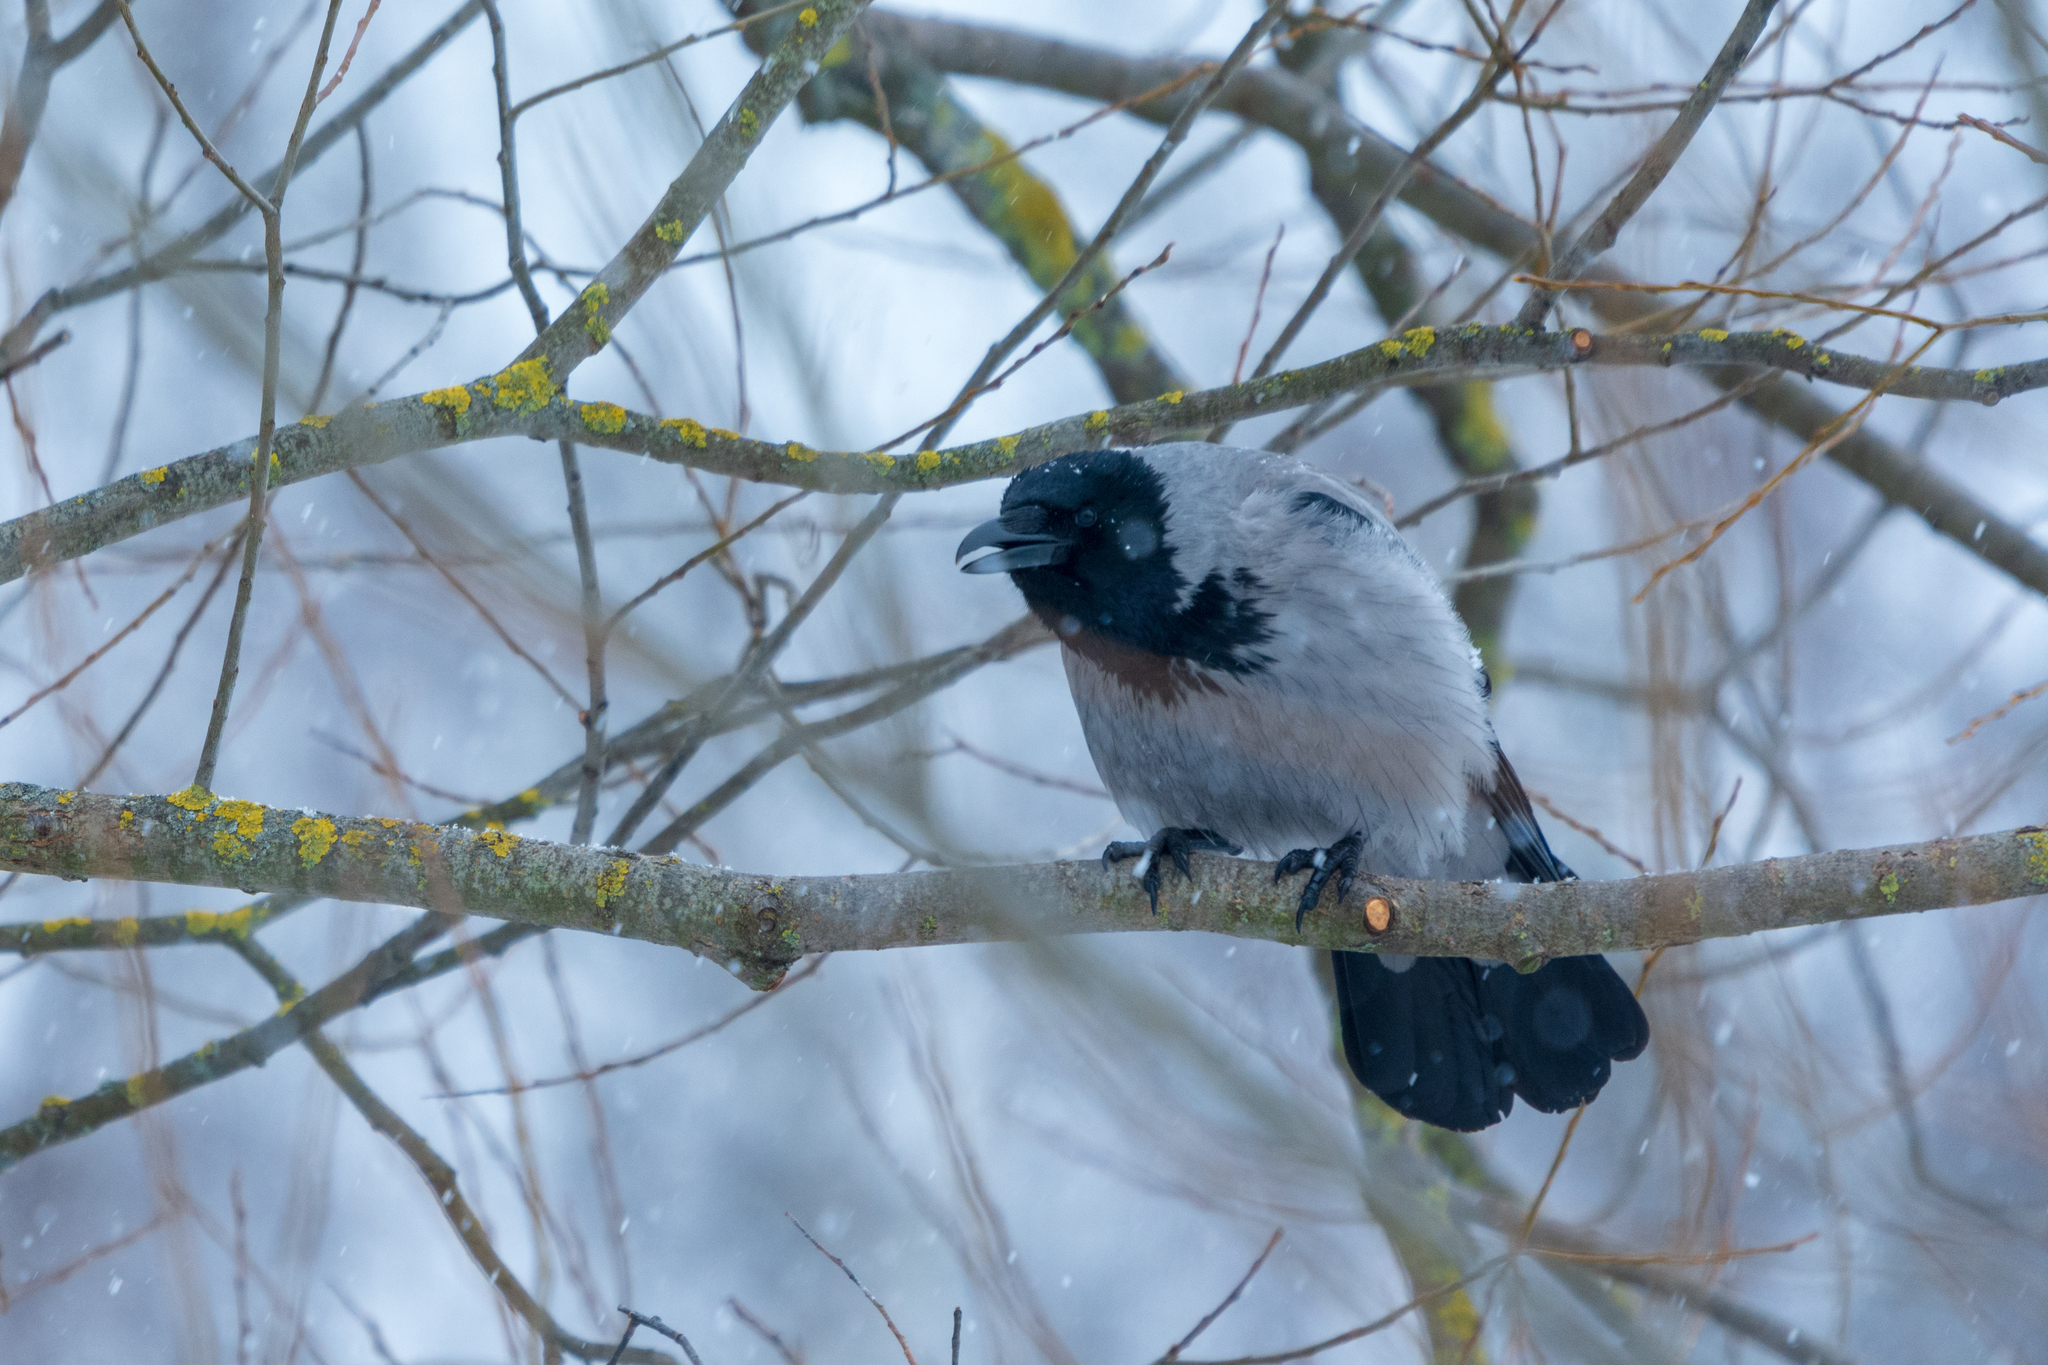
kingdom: Animalia
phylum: Chordata
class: Aves
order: Passeriformes
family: Corvidae
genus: Corvus
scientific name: Corvus cornix
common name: Hooded crow
